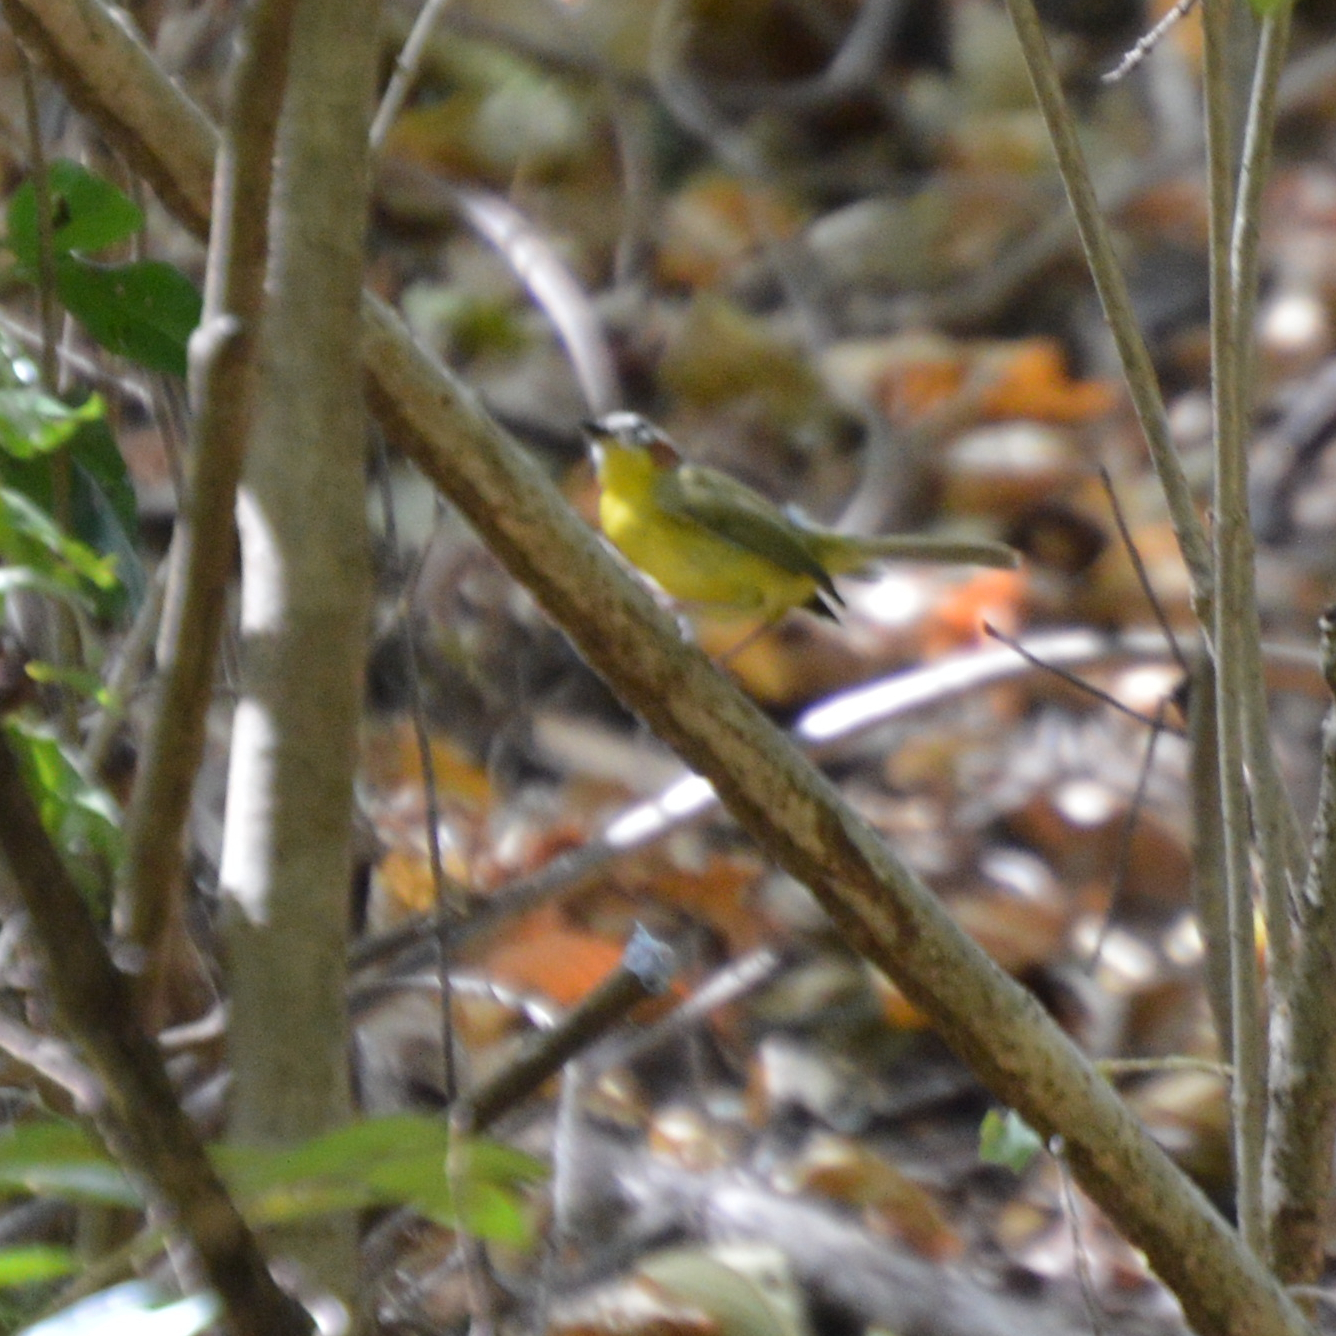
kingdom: Animalia
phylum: Chordata
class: Aves
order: Passeriformes
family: Parulidae
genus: Basileuterus
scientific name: Basileuterus rufifrons
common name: Rufous-capped warbler
